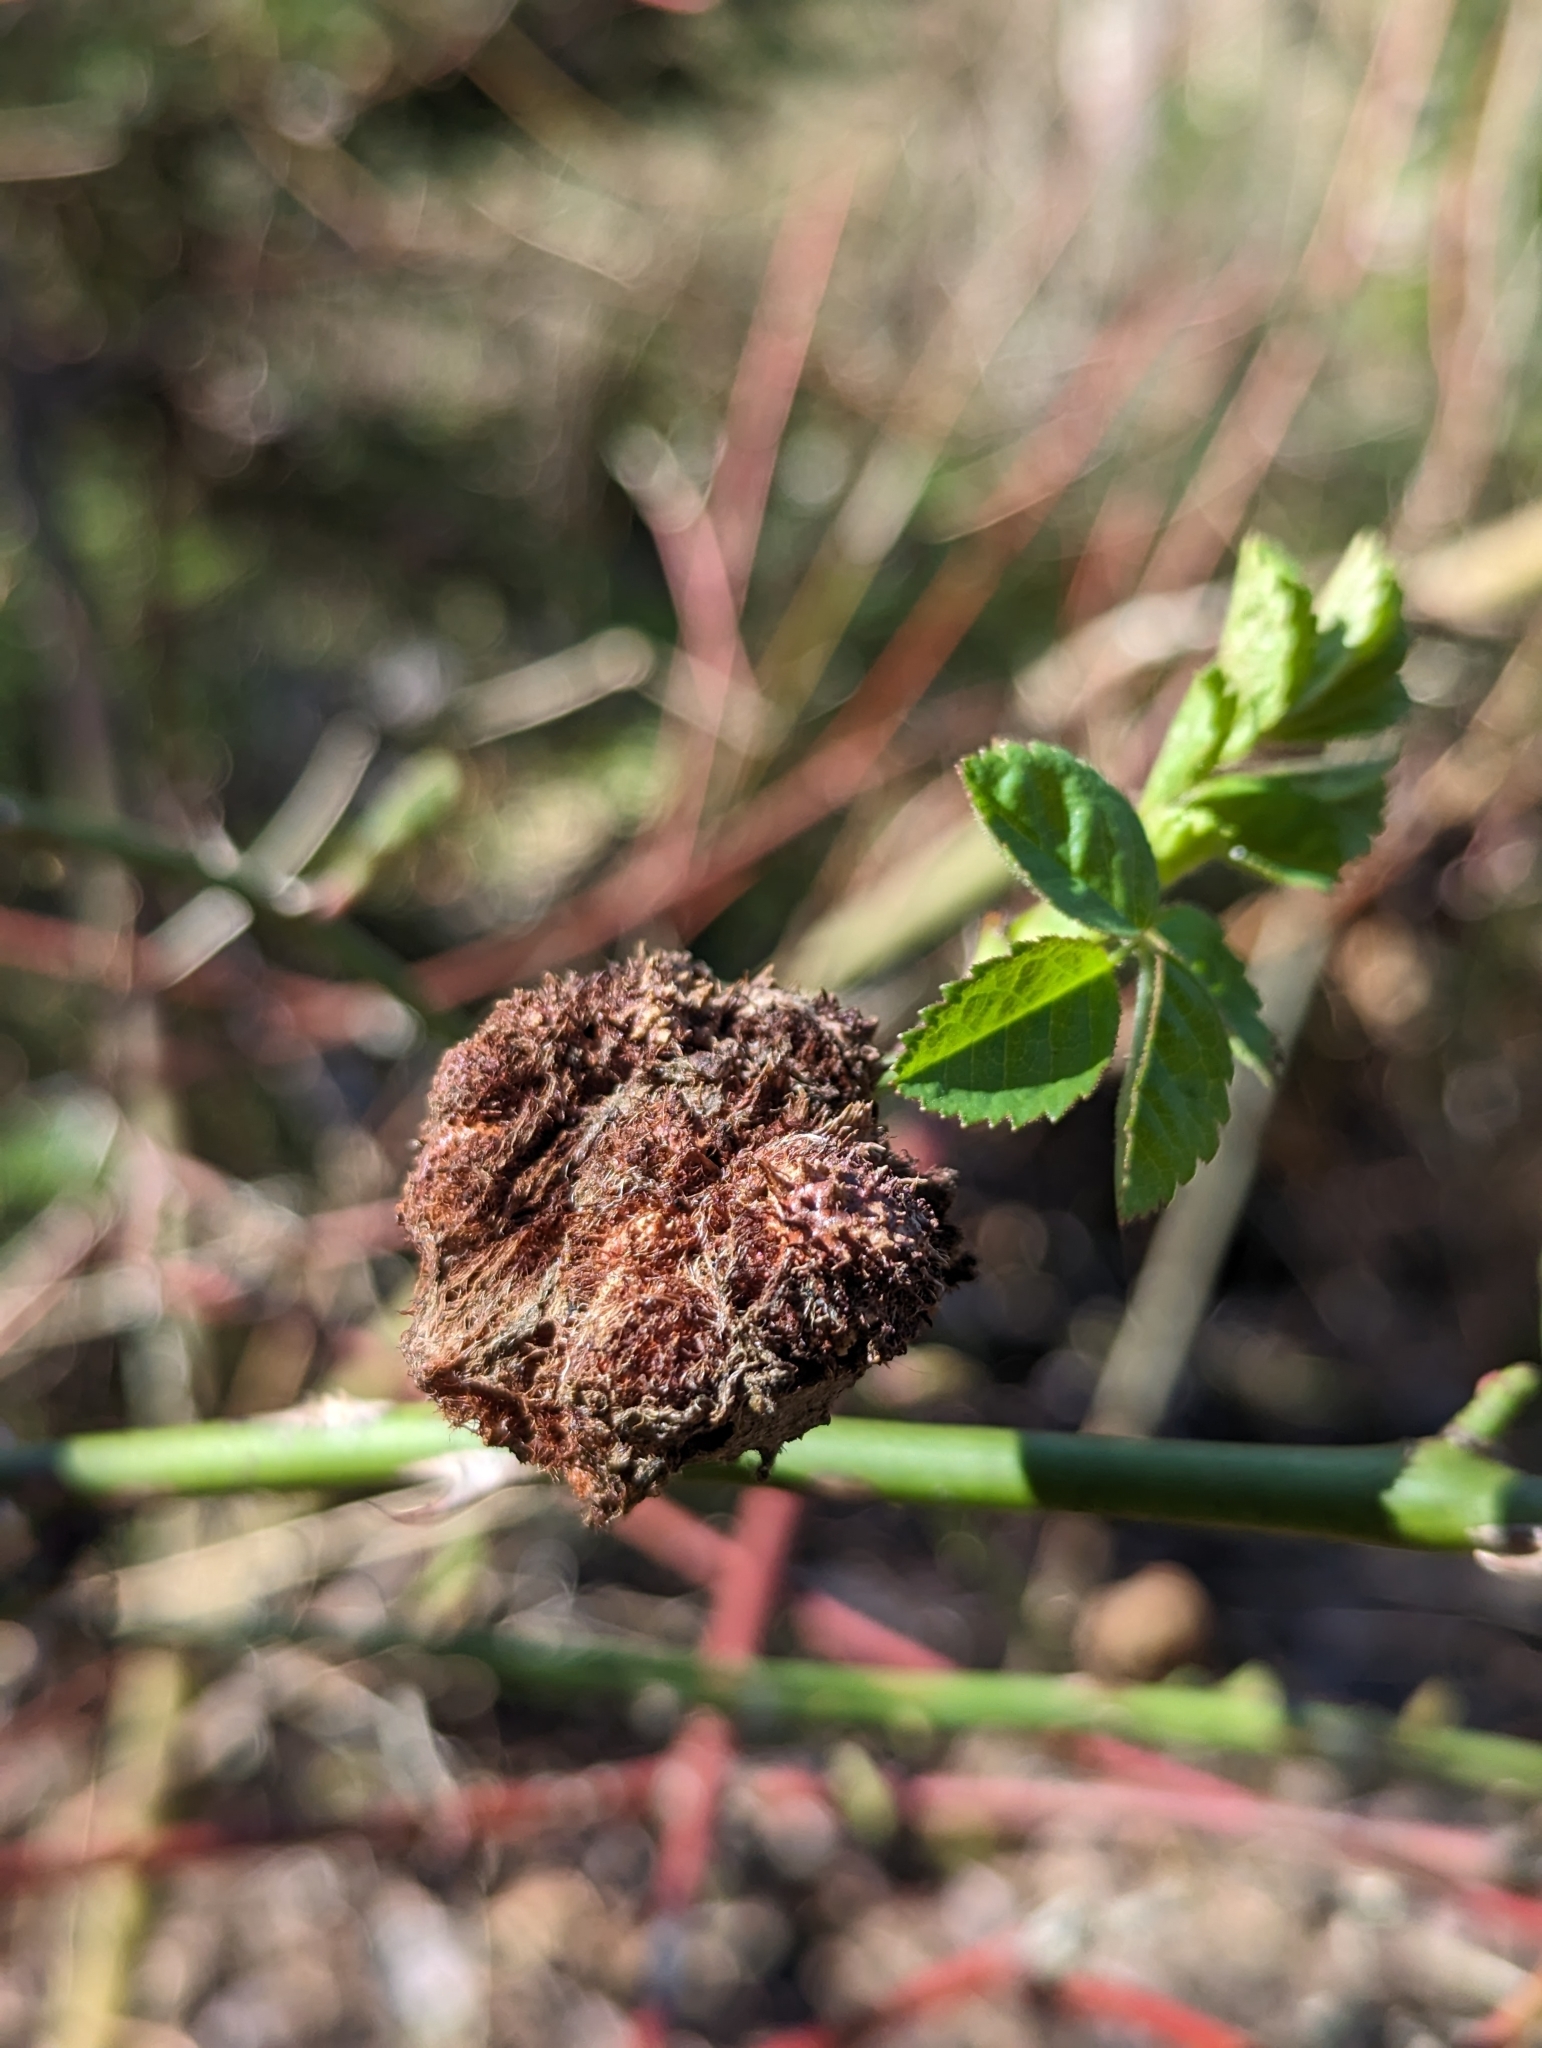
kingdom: Animalia
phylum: Arthropoda
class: Insecta
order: Hymenoptera
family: Cynipidae
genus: Diplolepis
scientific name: Diplolepis rosae
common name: Bedeguar gall
